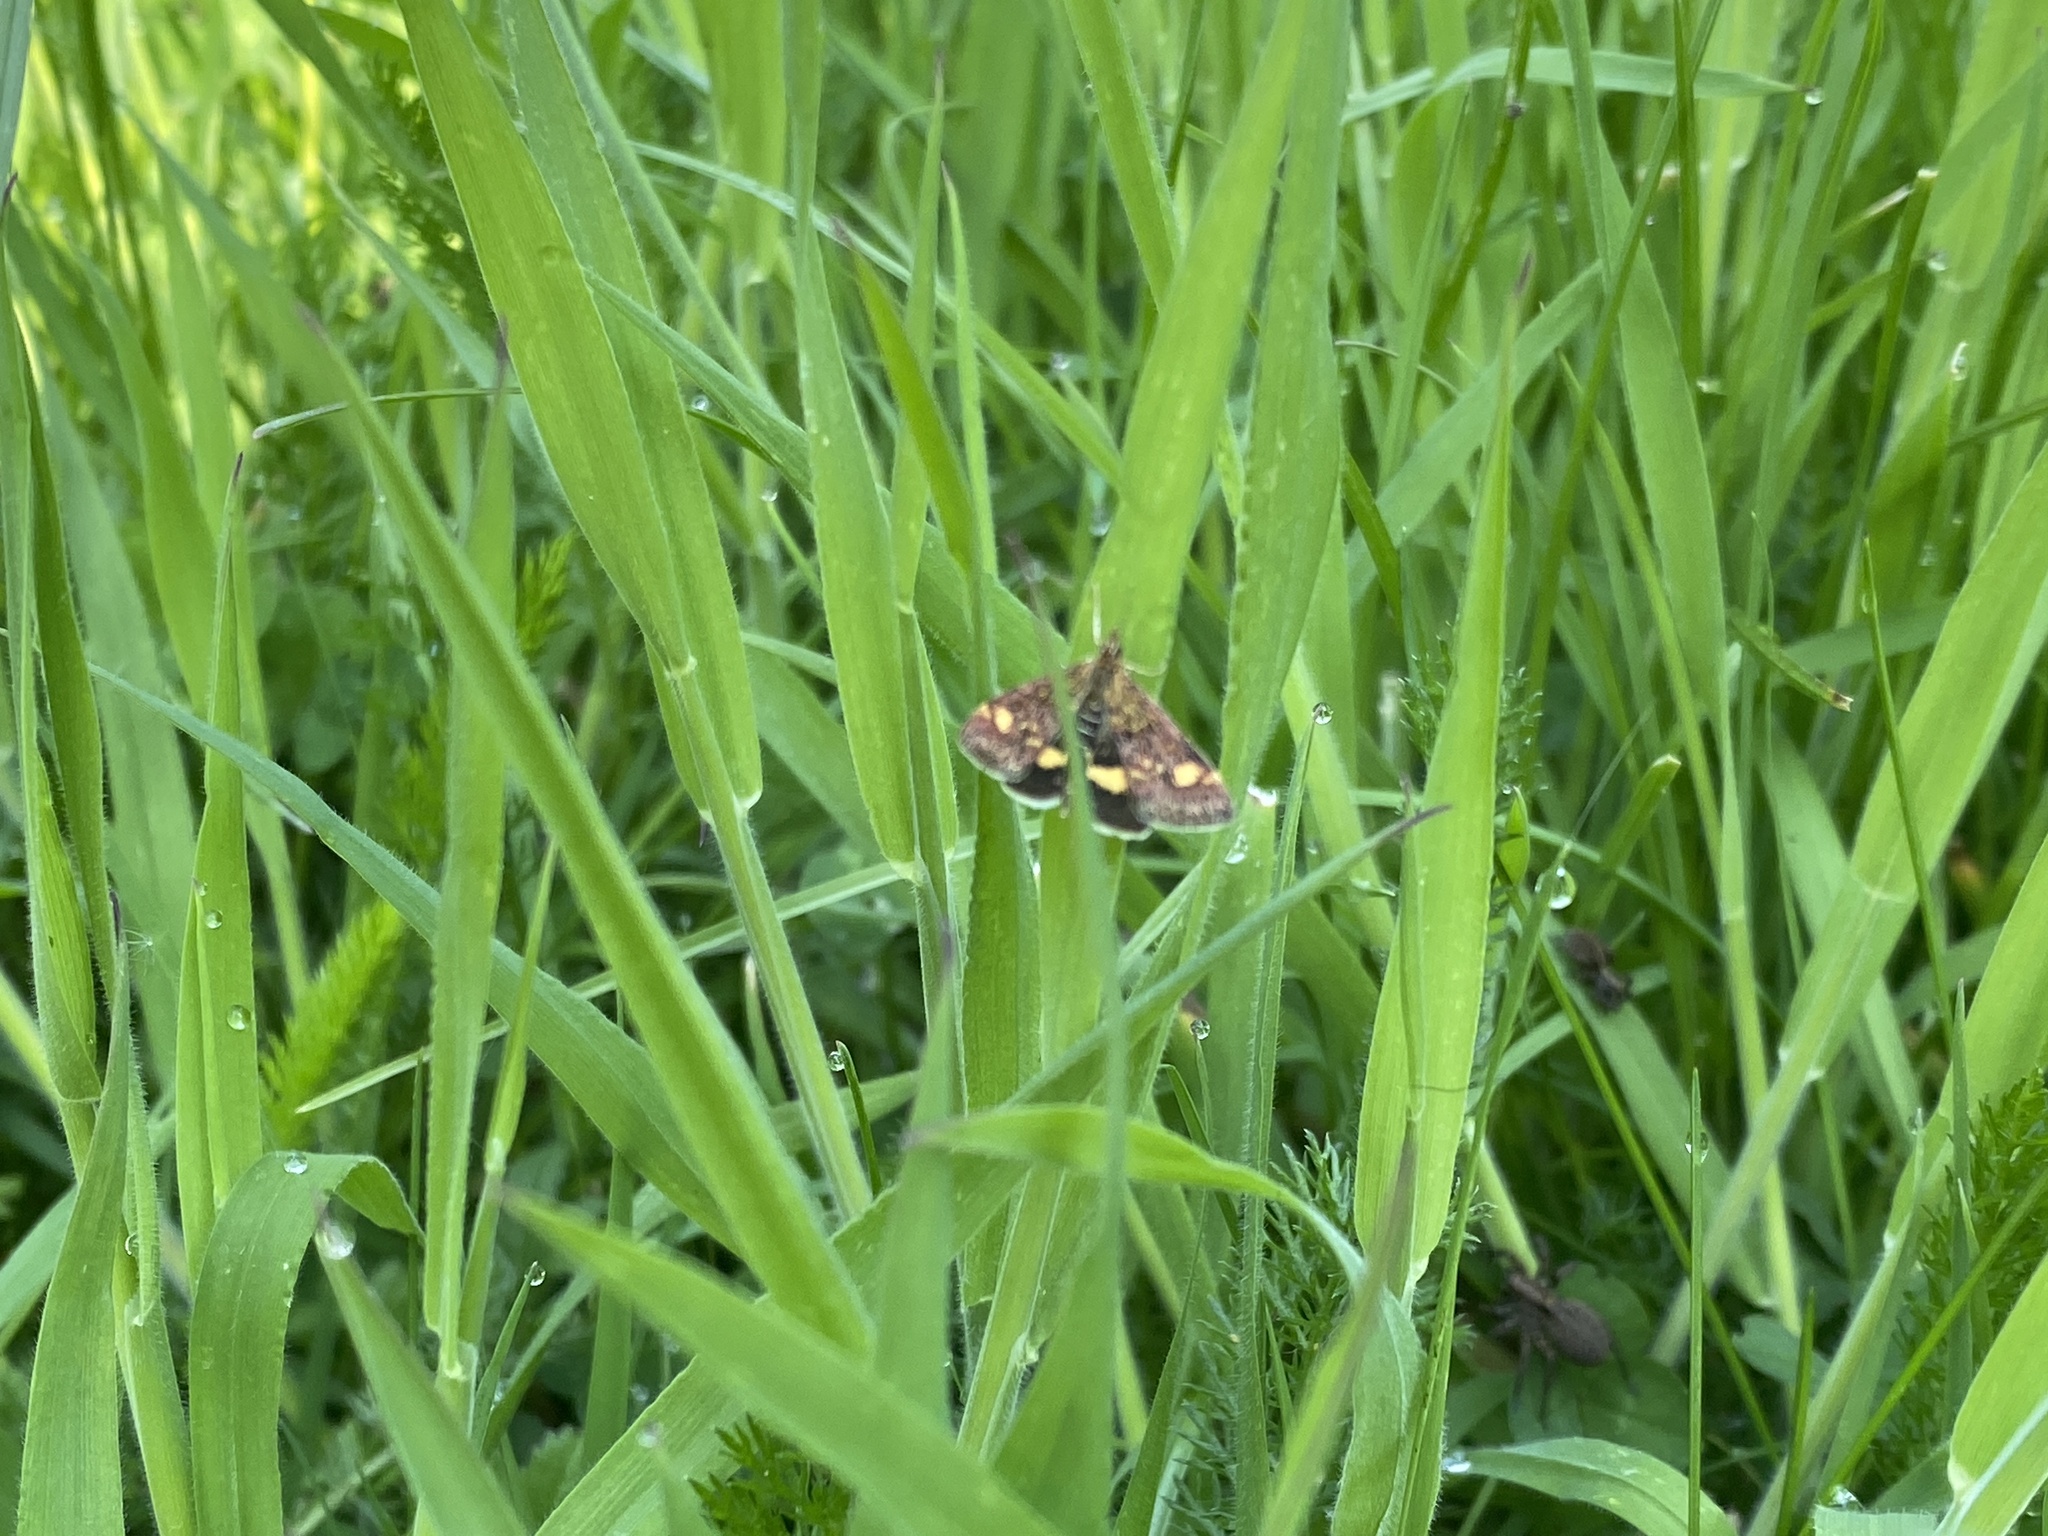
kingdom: Animalia
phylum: Arthropoda
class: Insecta
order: Lepidoptera
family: Crambidae
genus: Pyrausta
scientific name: Pyrausta aurata
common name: Small purple & gold
